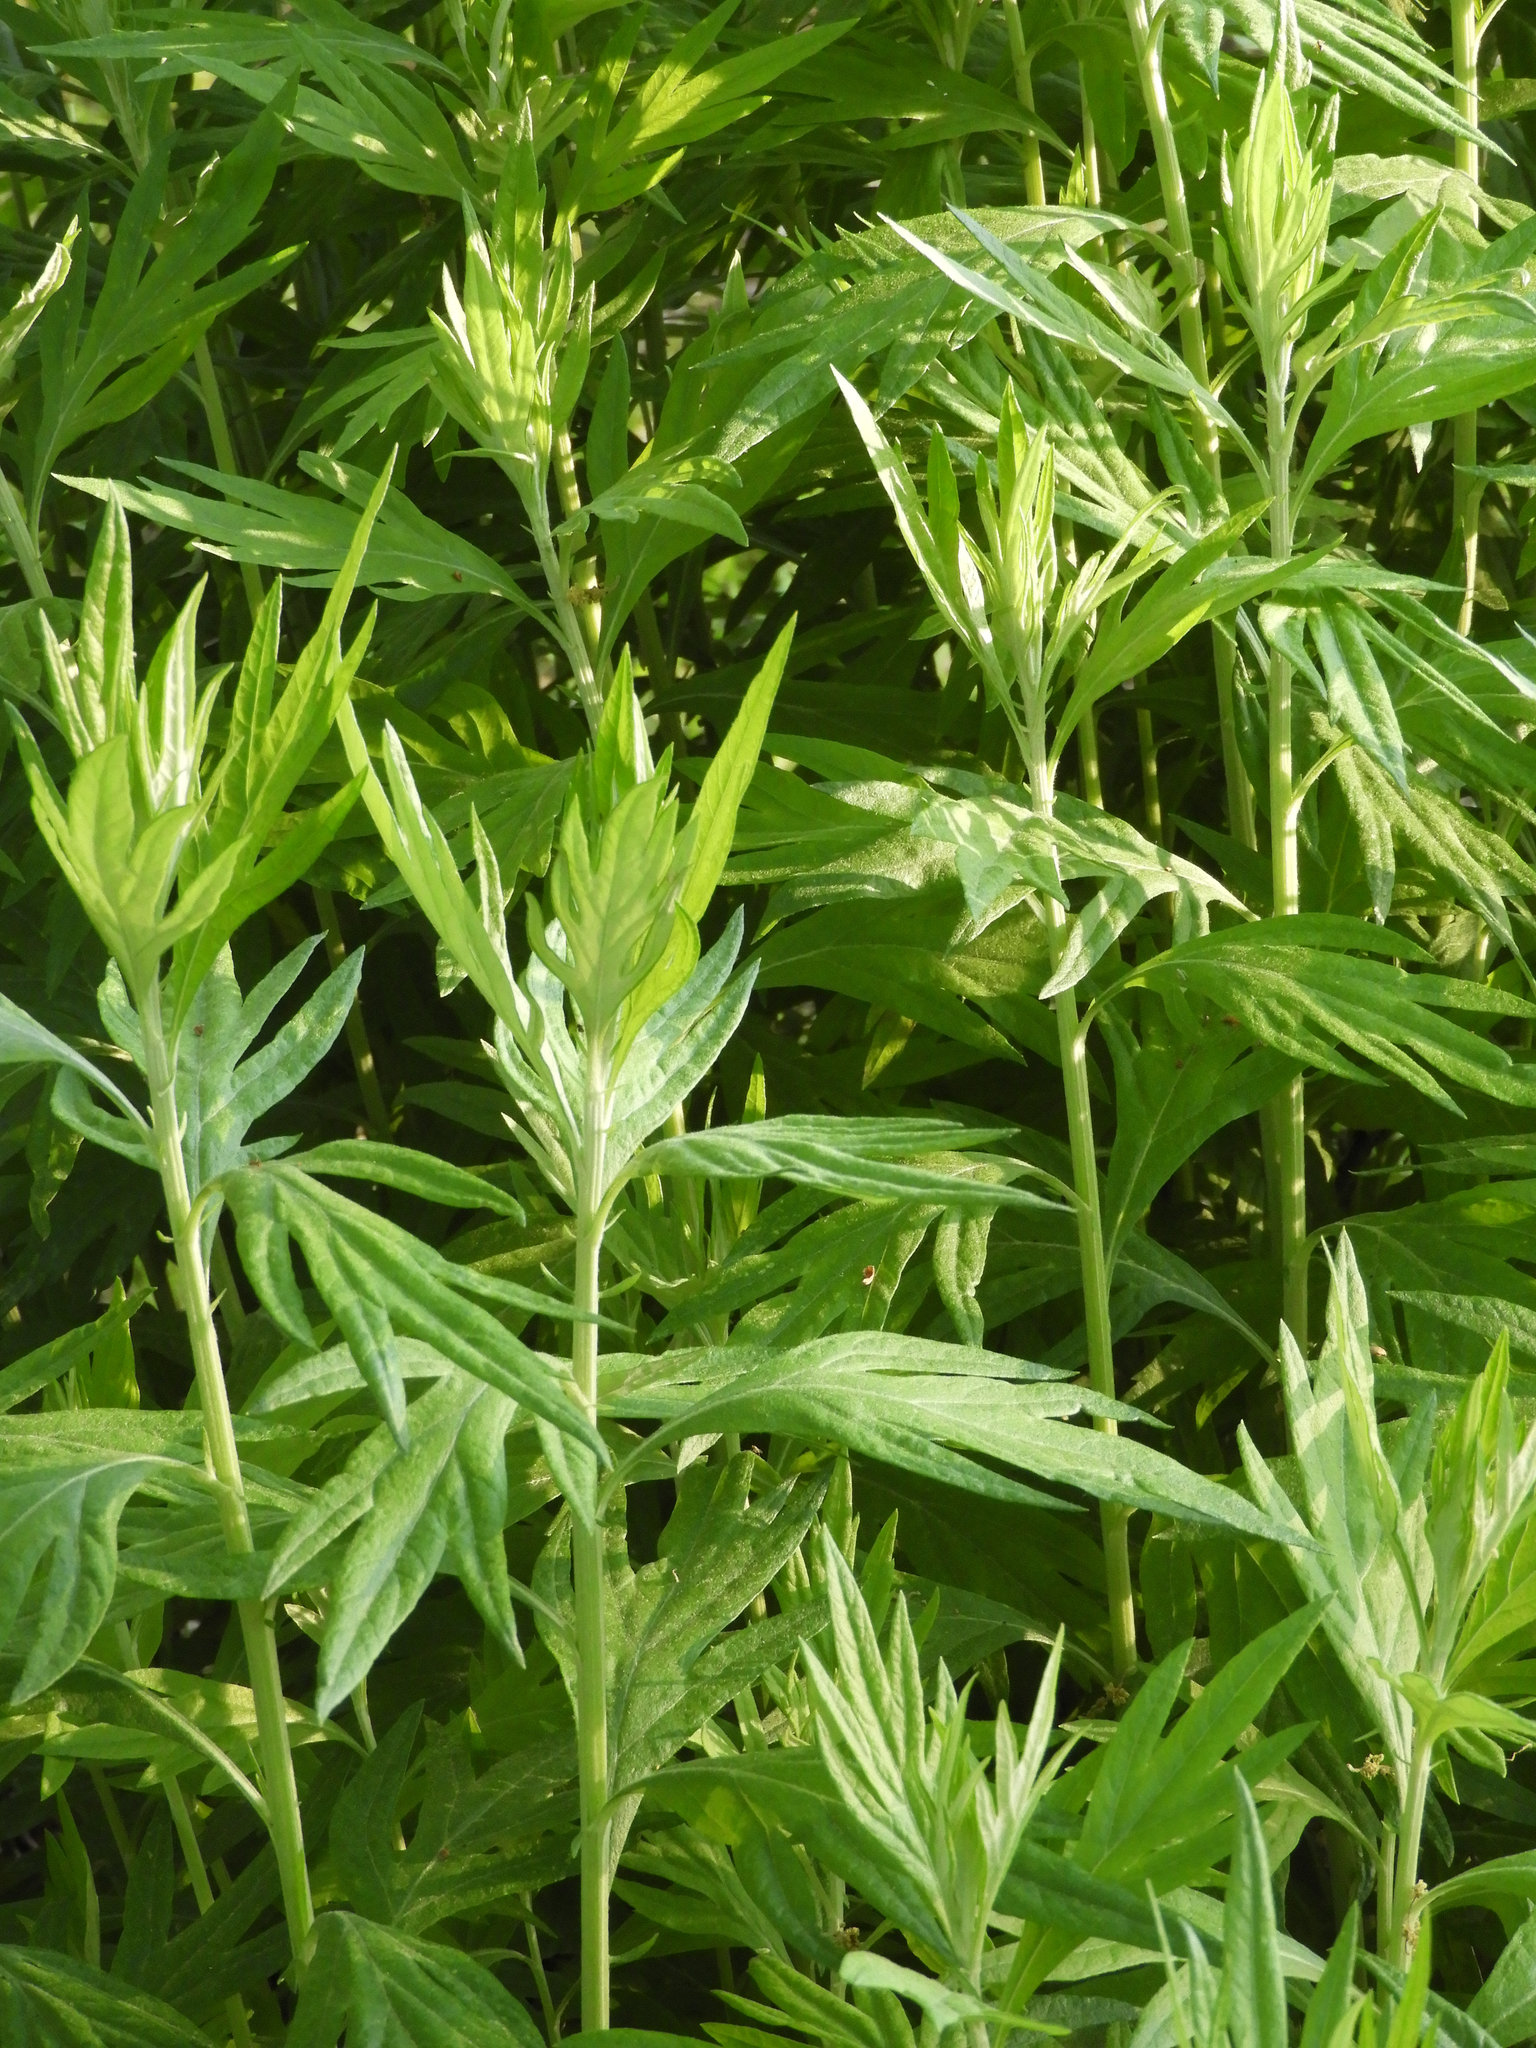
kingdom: Plantae
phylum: Tracheophyta
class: Magnoliopsida
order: Asterales
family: Asteraceae
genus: Artemisia
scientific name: Artemisia douglasiana
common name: Northwest mugwort
